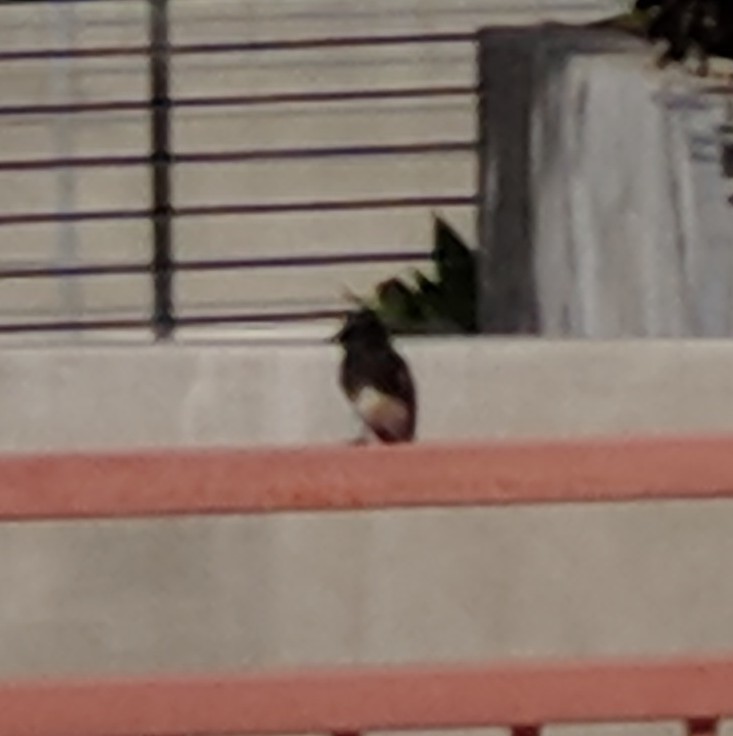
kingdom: Animalia
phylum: Chordata
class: Aves
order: Passeriformes
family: Tyrannidae
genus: Sayornis
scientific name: Sayornis nigricans
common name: Black phoebe
